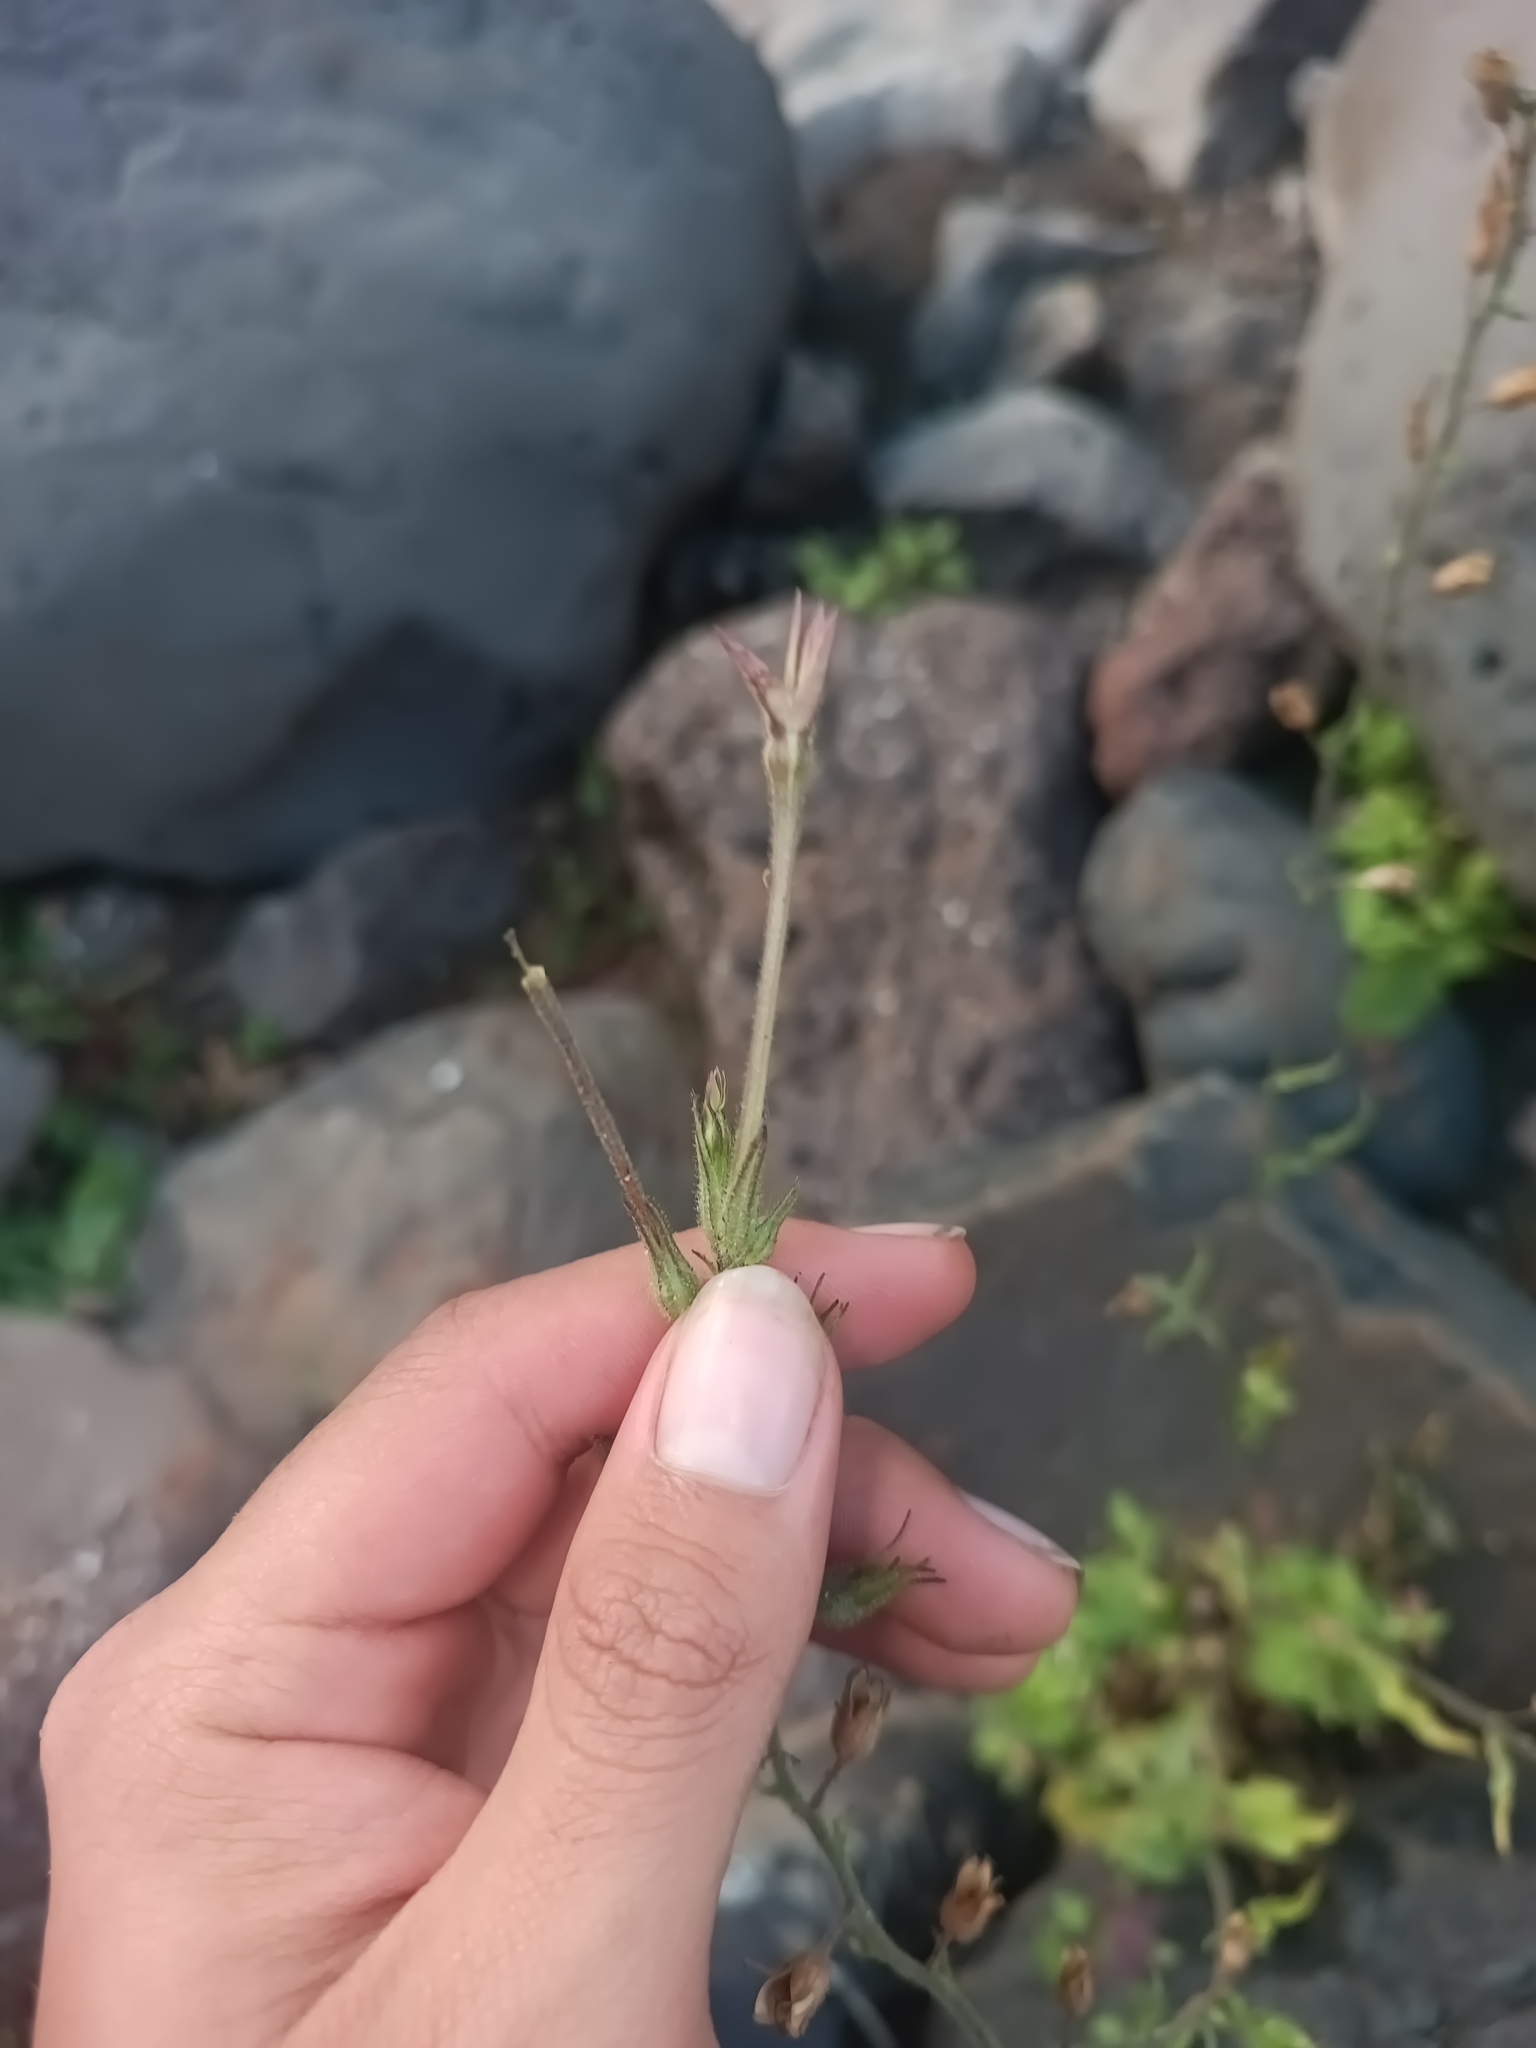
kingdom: Plantae
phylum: Tracheophyta
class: Magnoliopsida
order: Solanales
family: Solanaceae
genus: Nicotiana
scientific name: Nicotiana plumbaginifolia
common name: Tex-mex tobacco
